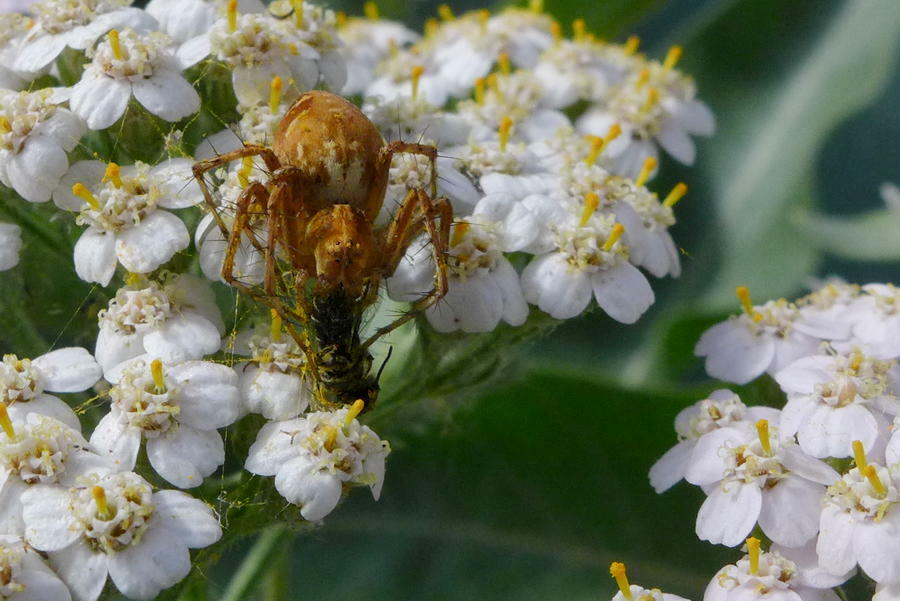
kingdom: Animalia
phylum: Arthropoda
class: Arachnida
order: Araneae
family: Oxyopidae
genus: Oxyopes
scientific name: Oxyopes scalaris
